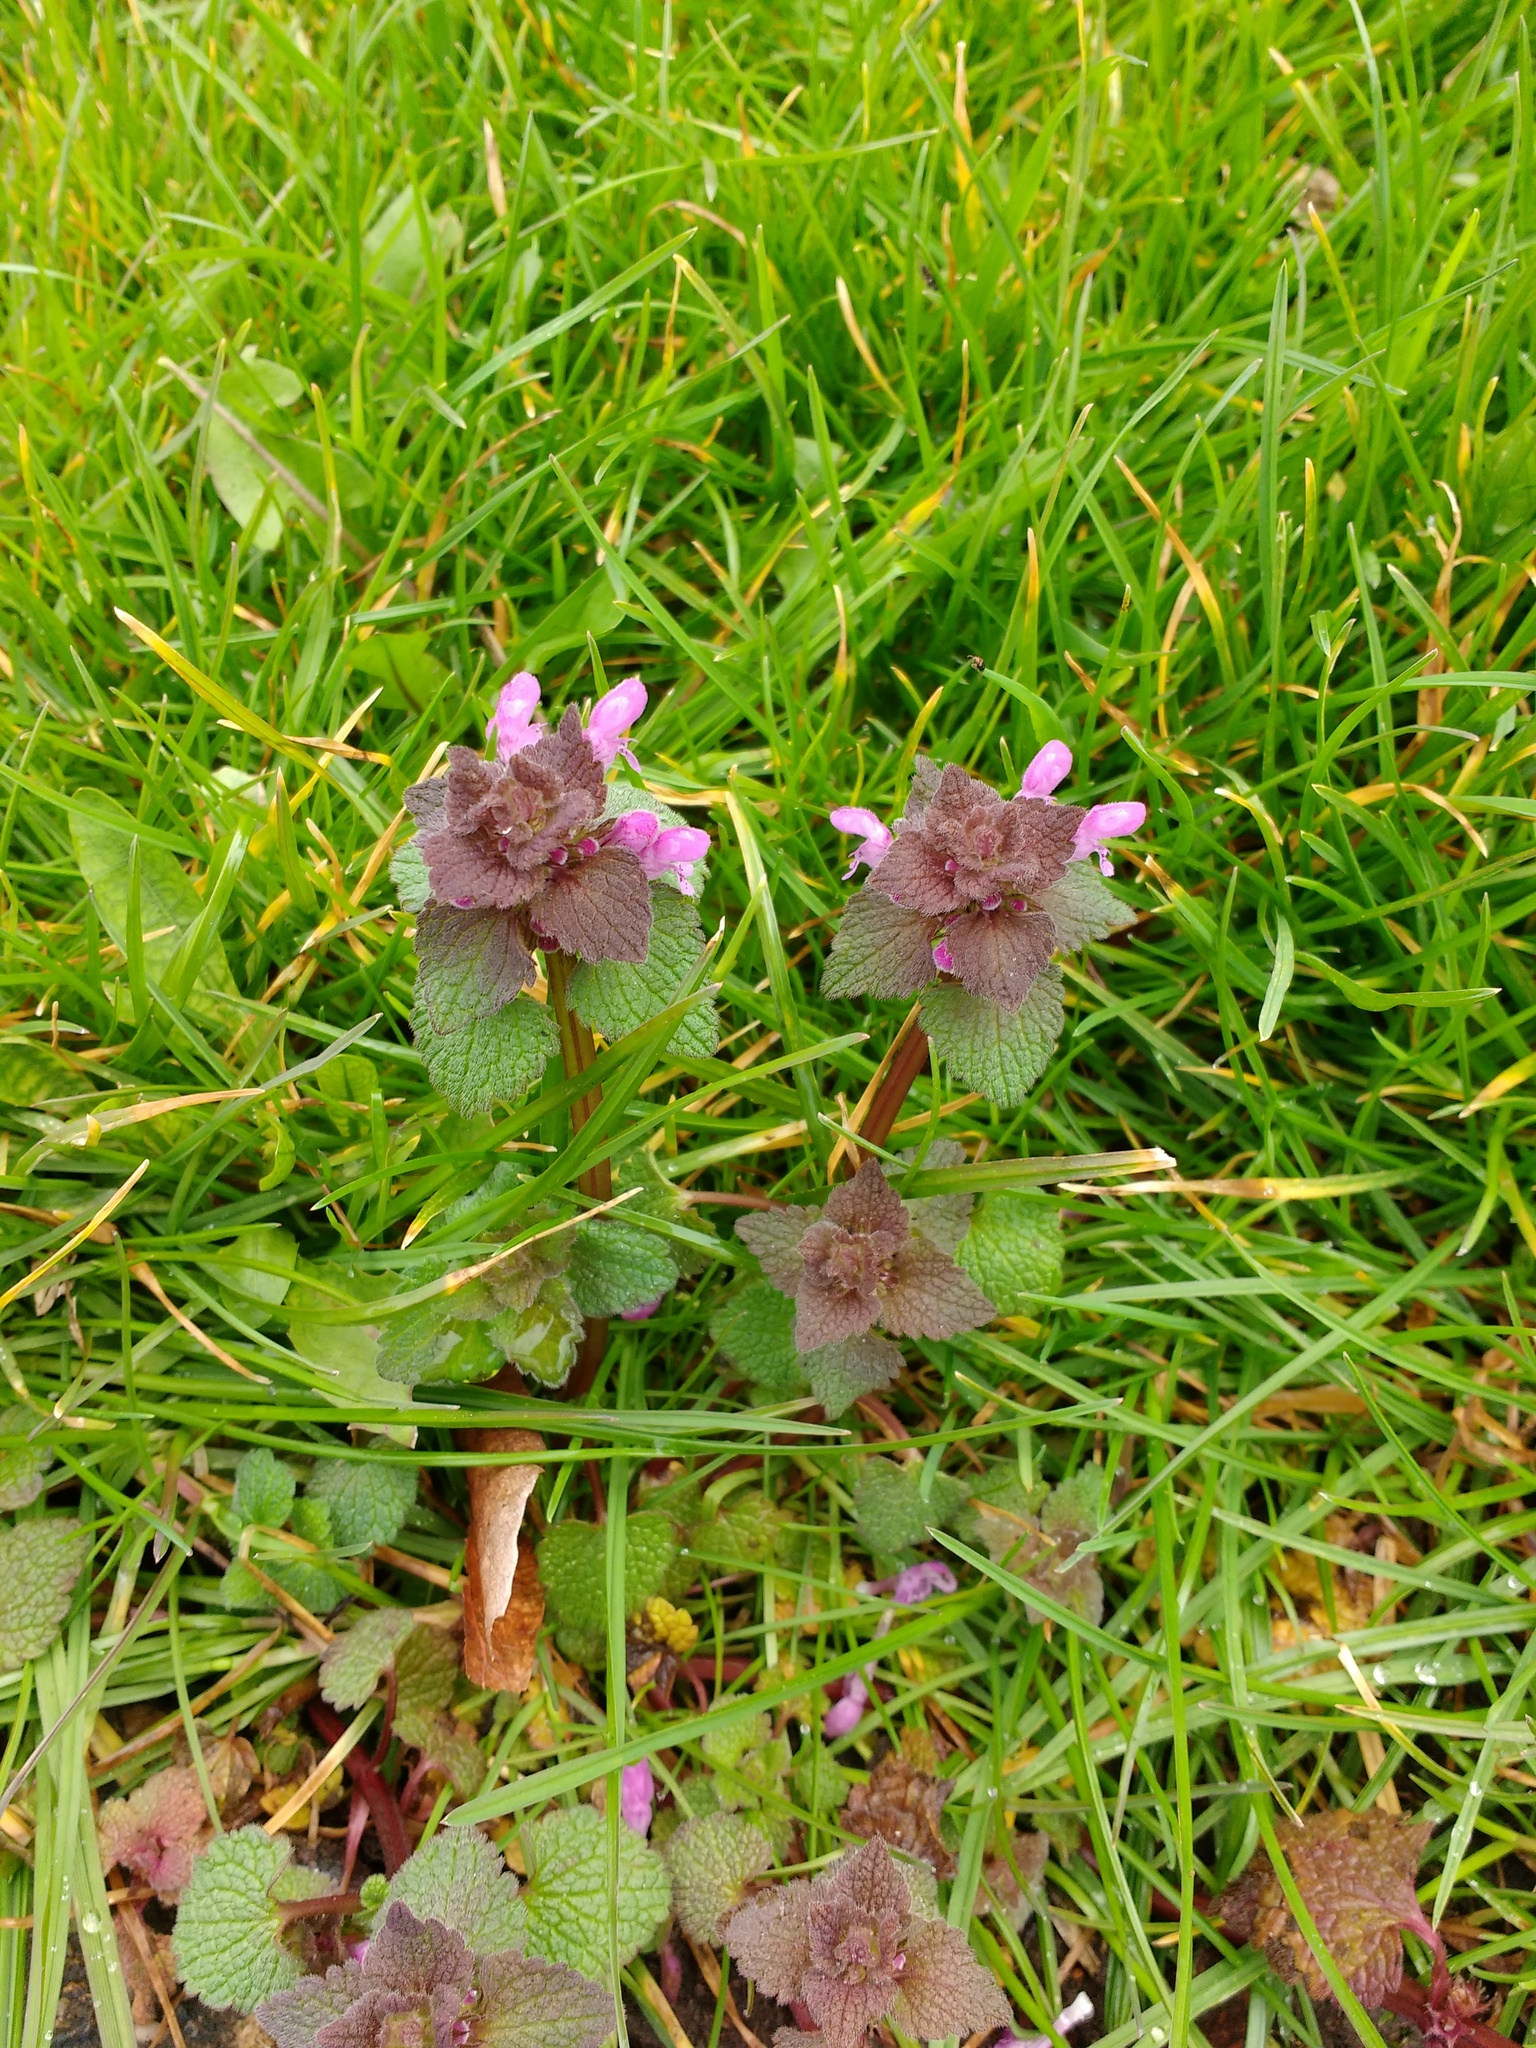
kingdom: Plantae
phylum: Tracheophyta
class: Magnoliopsida
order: Lamiales
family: Lamiaceae
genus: Lamium
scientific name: Lamium purpureum
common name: Red dead-nettle
